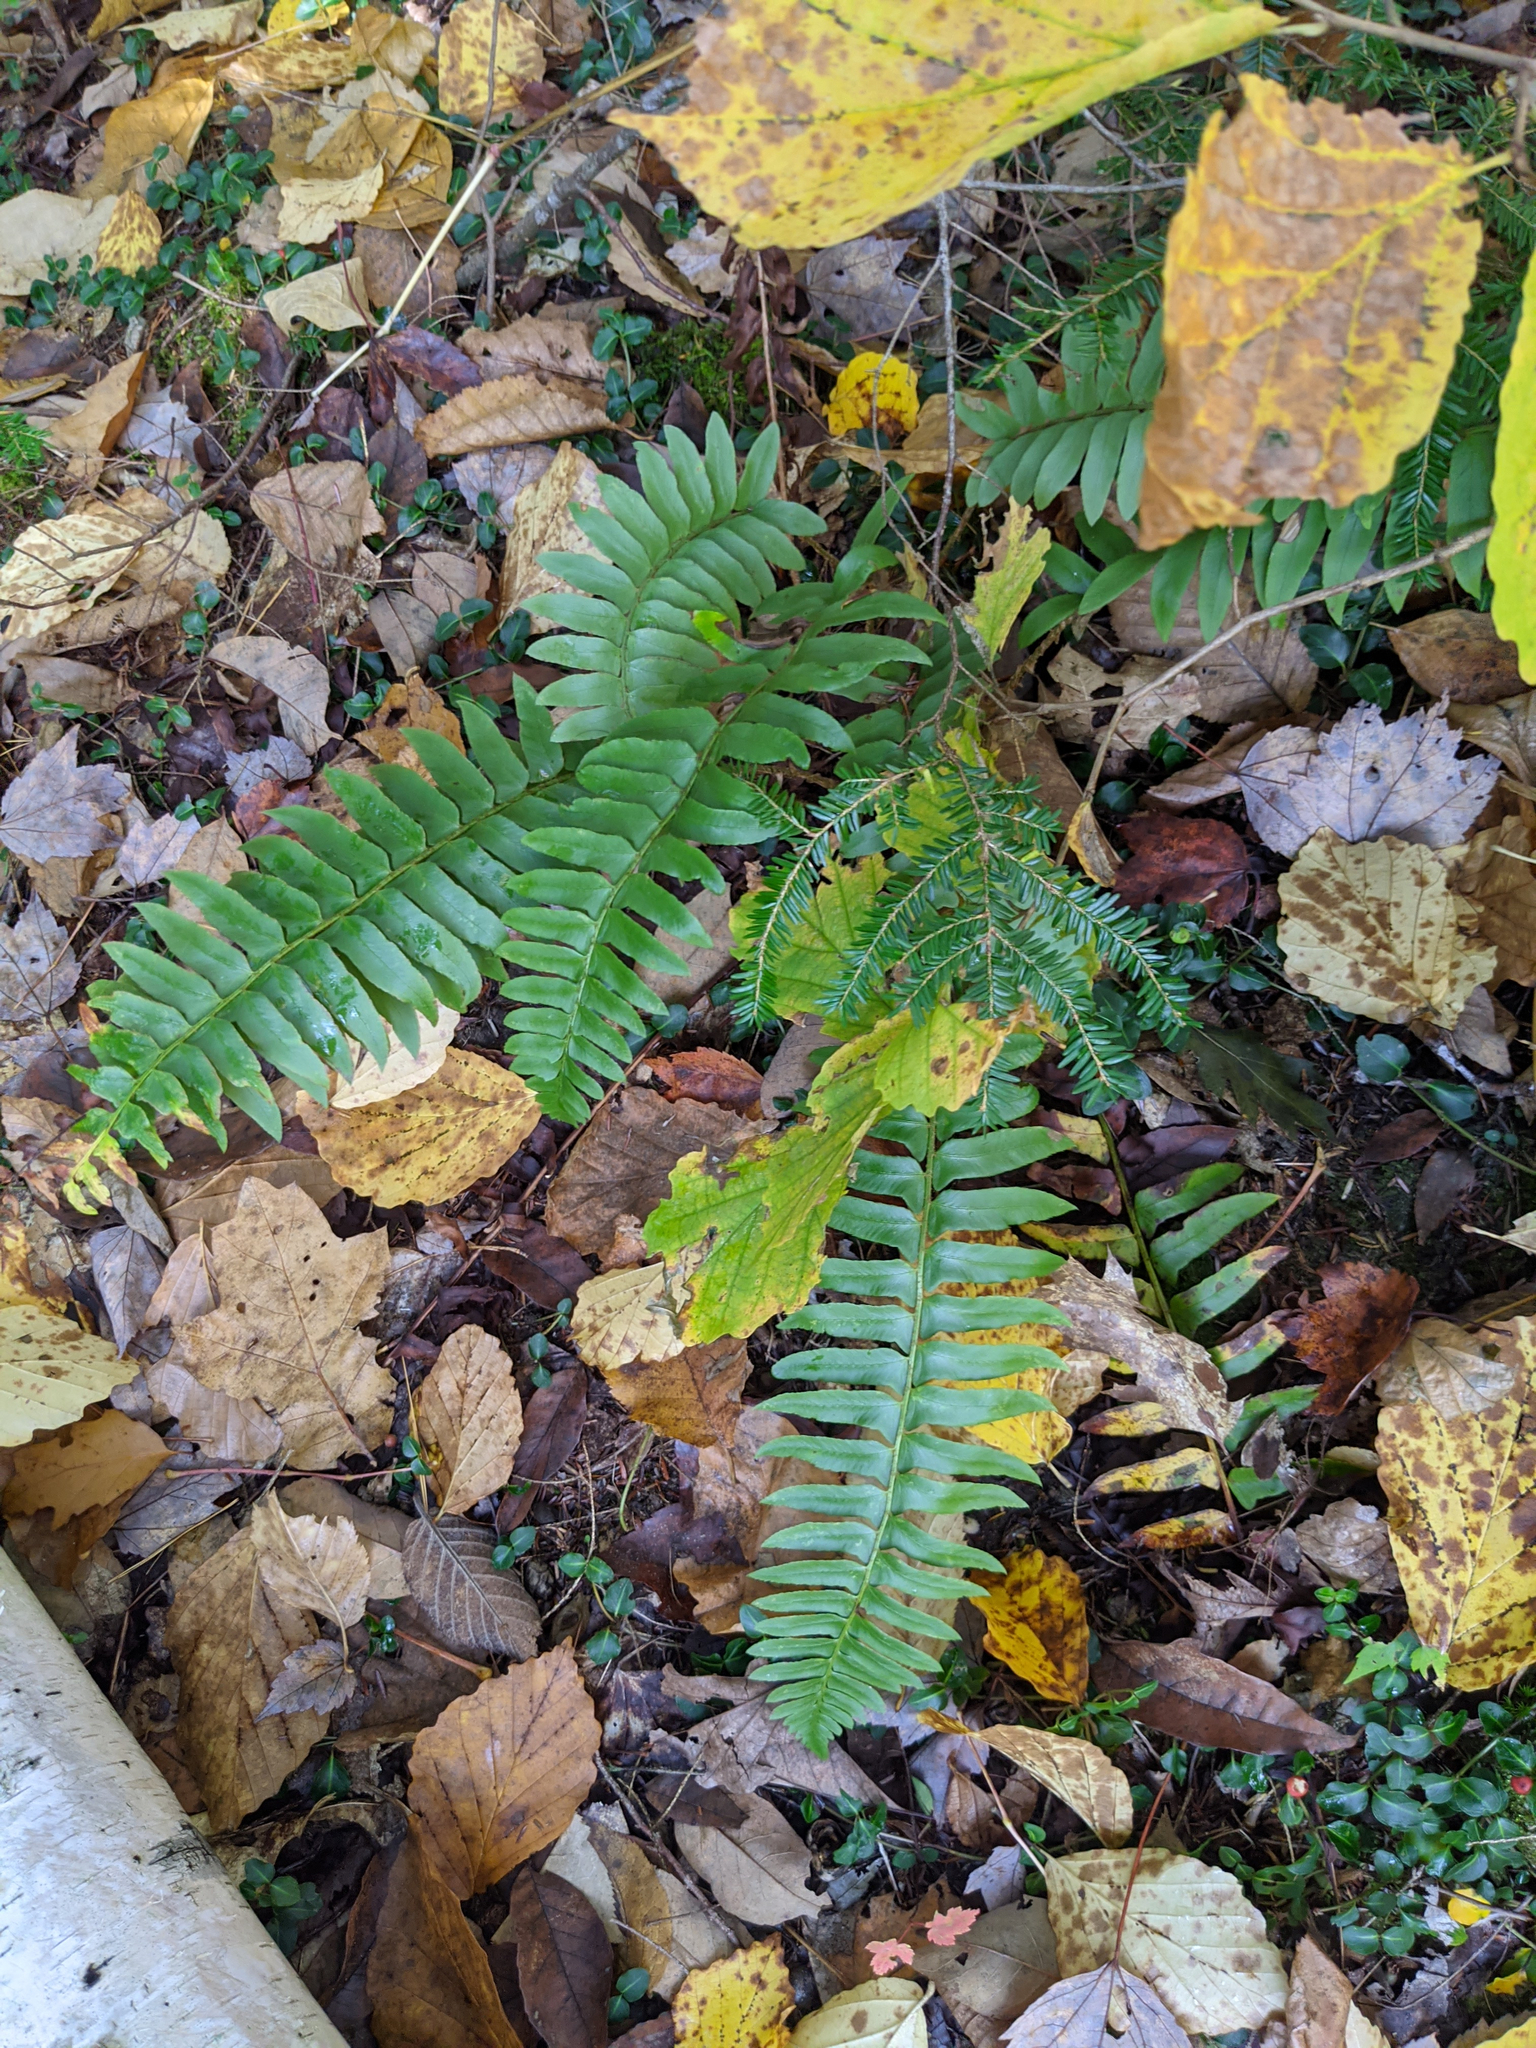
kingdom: Plantae
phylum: Tracheophyta
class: Polypodiopsida
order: Polypodiales
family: Dryopteridaceae
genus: Polystichum
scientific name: Polystichum acrostichoides
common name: Christmas fern
